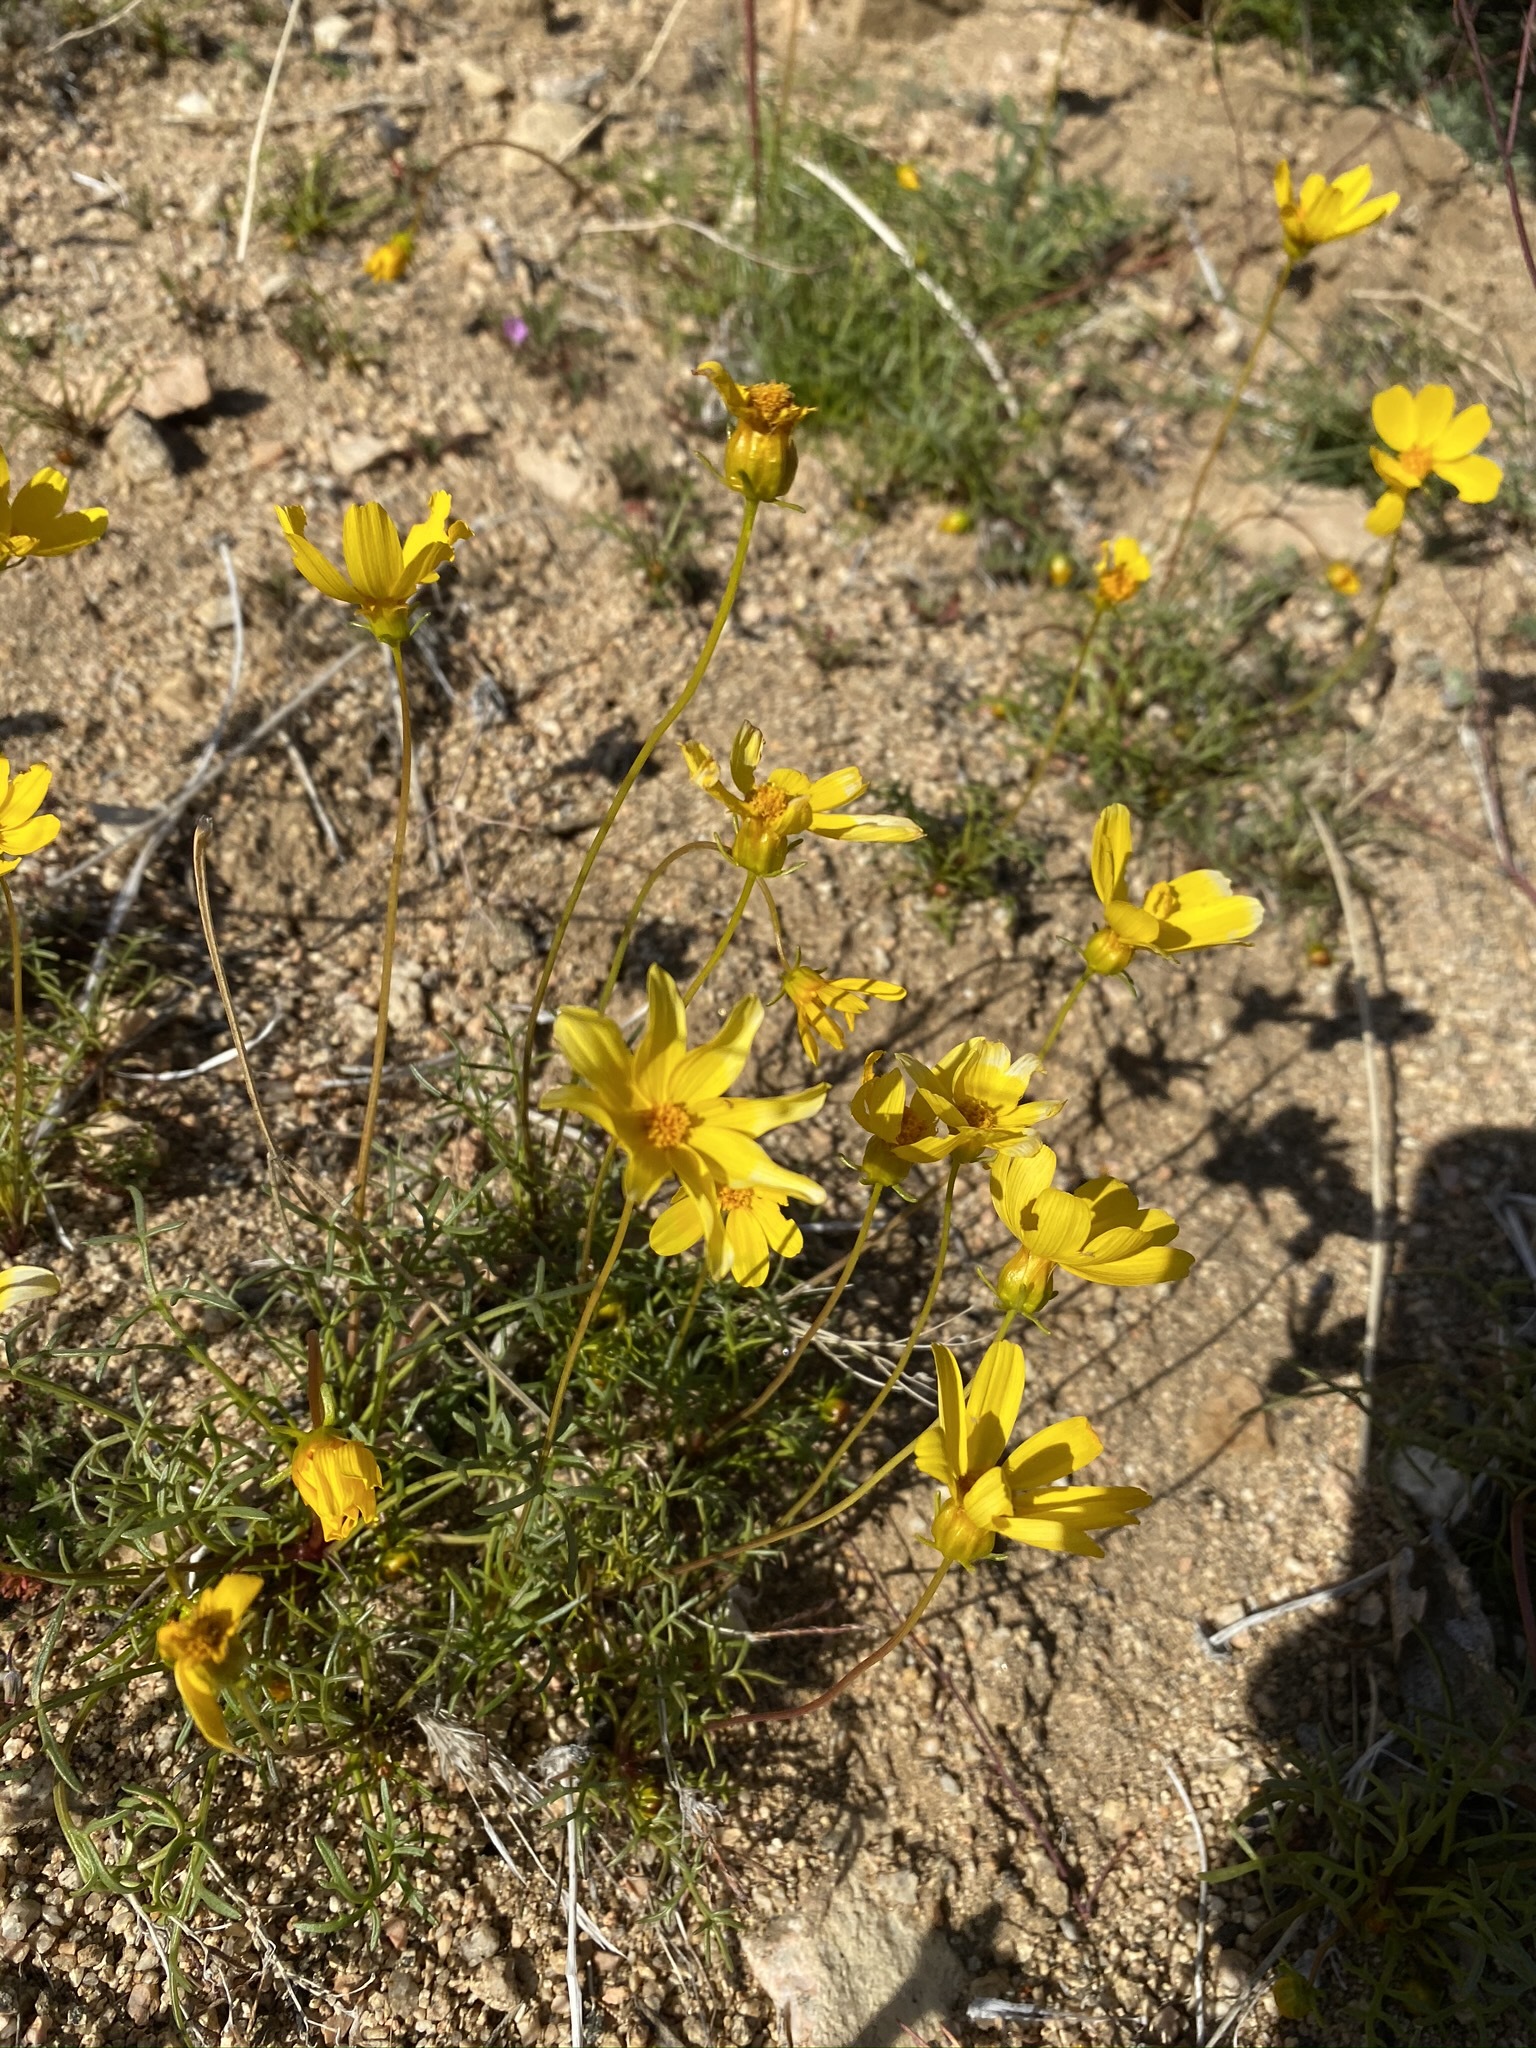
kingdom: Plantae
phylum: Tracheophyta
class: Magnoliopsida
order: Asterales
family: Asteraceae
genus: Coreopsis
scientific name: Coreopsis bigelovii
